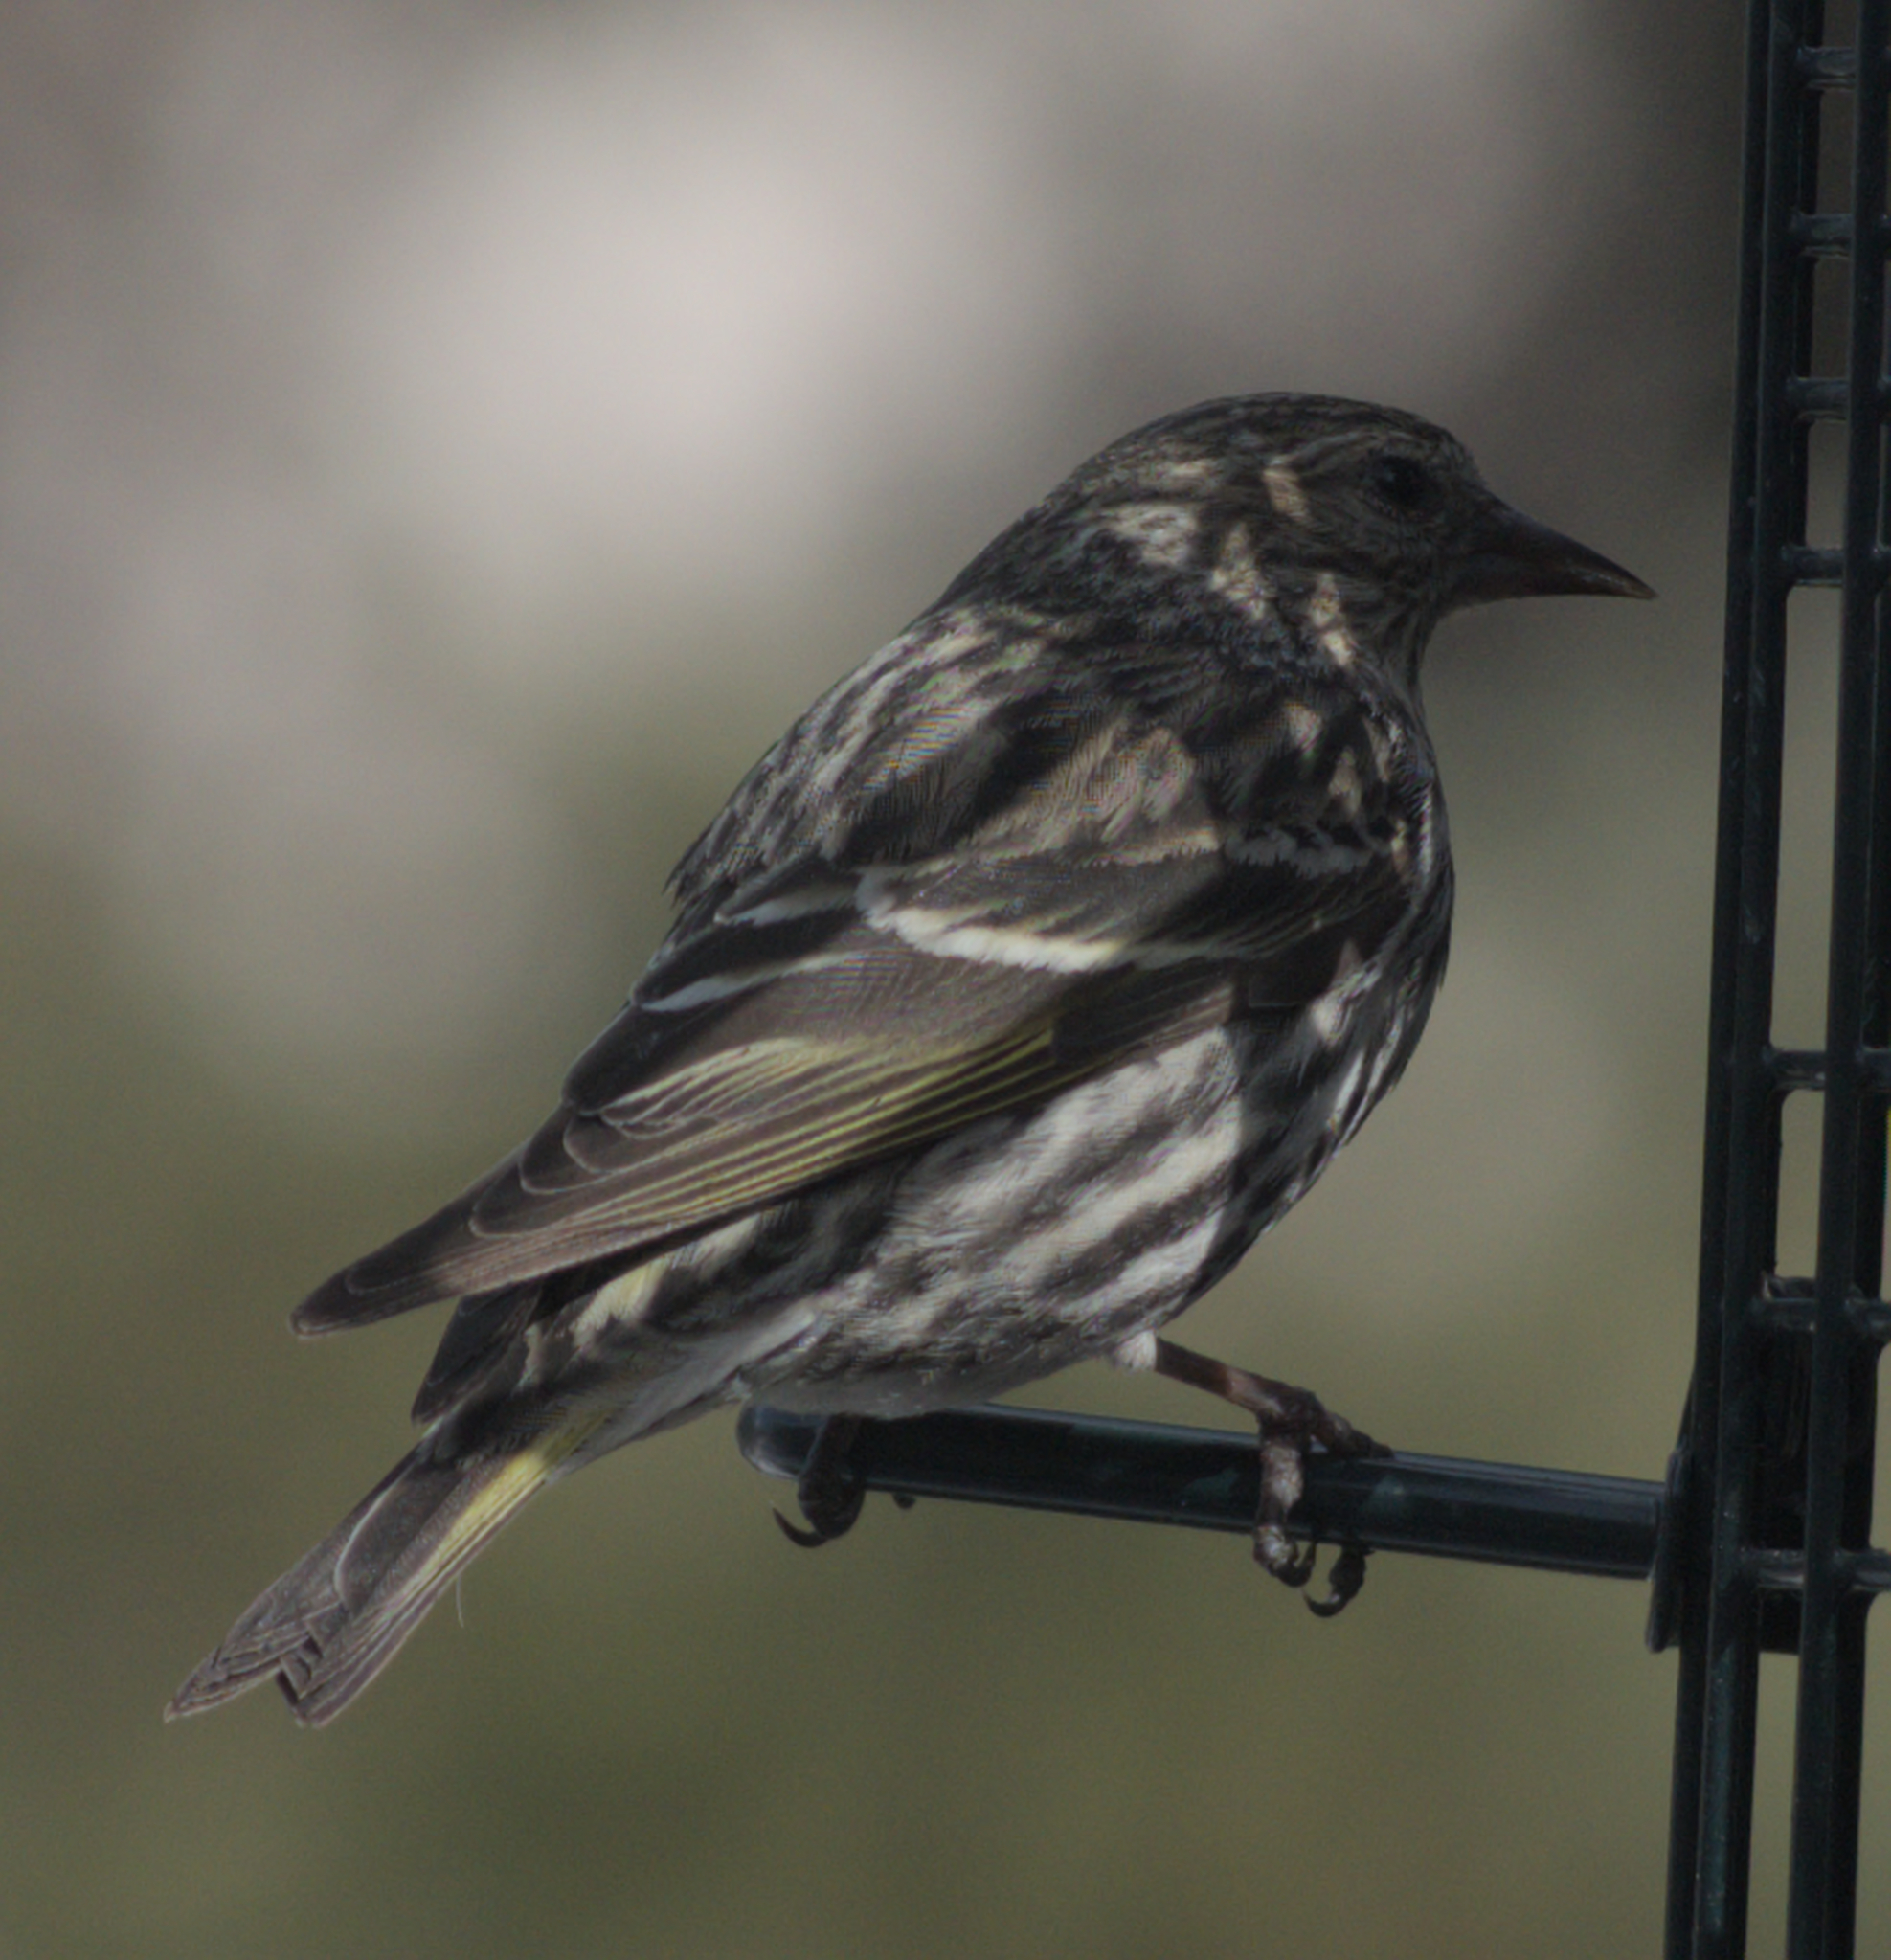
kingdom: Animalia
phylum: Chordata
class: Aves
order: Passeriformes
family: Fringillidae
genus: Spinus
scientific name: Spinus pinus
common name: Pine siskin
